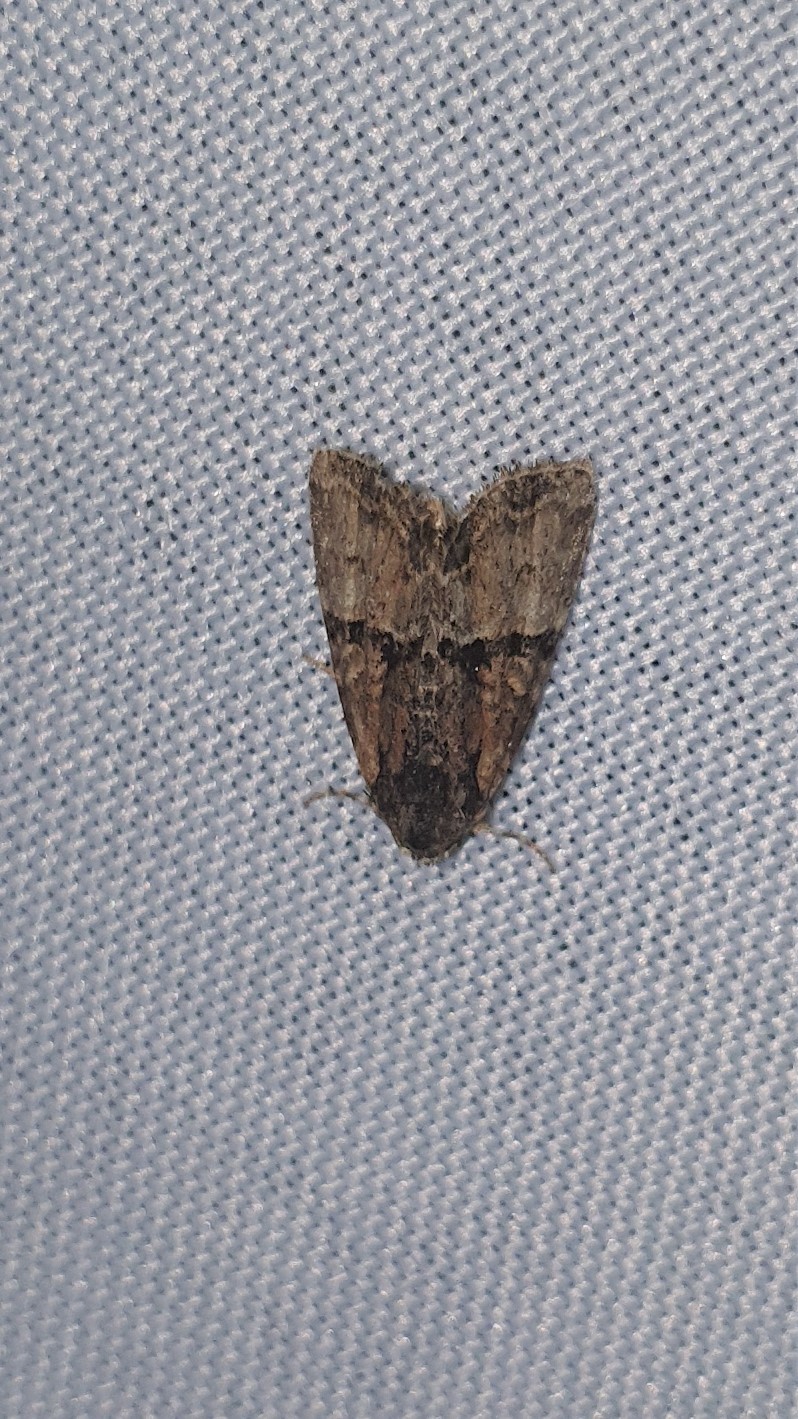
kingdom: Animalia
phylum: Arthropoda
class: Insecta
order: Lepidoptera
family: Noctuidae
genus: Mesoligia
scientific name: Mesoligia furuncula
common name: Cloaked minor
